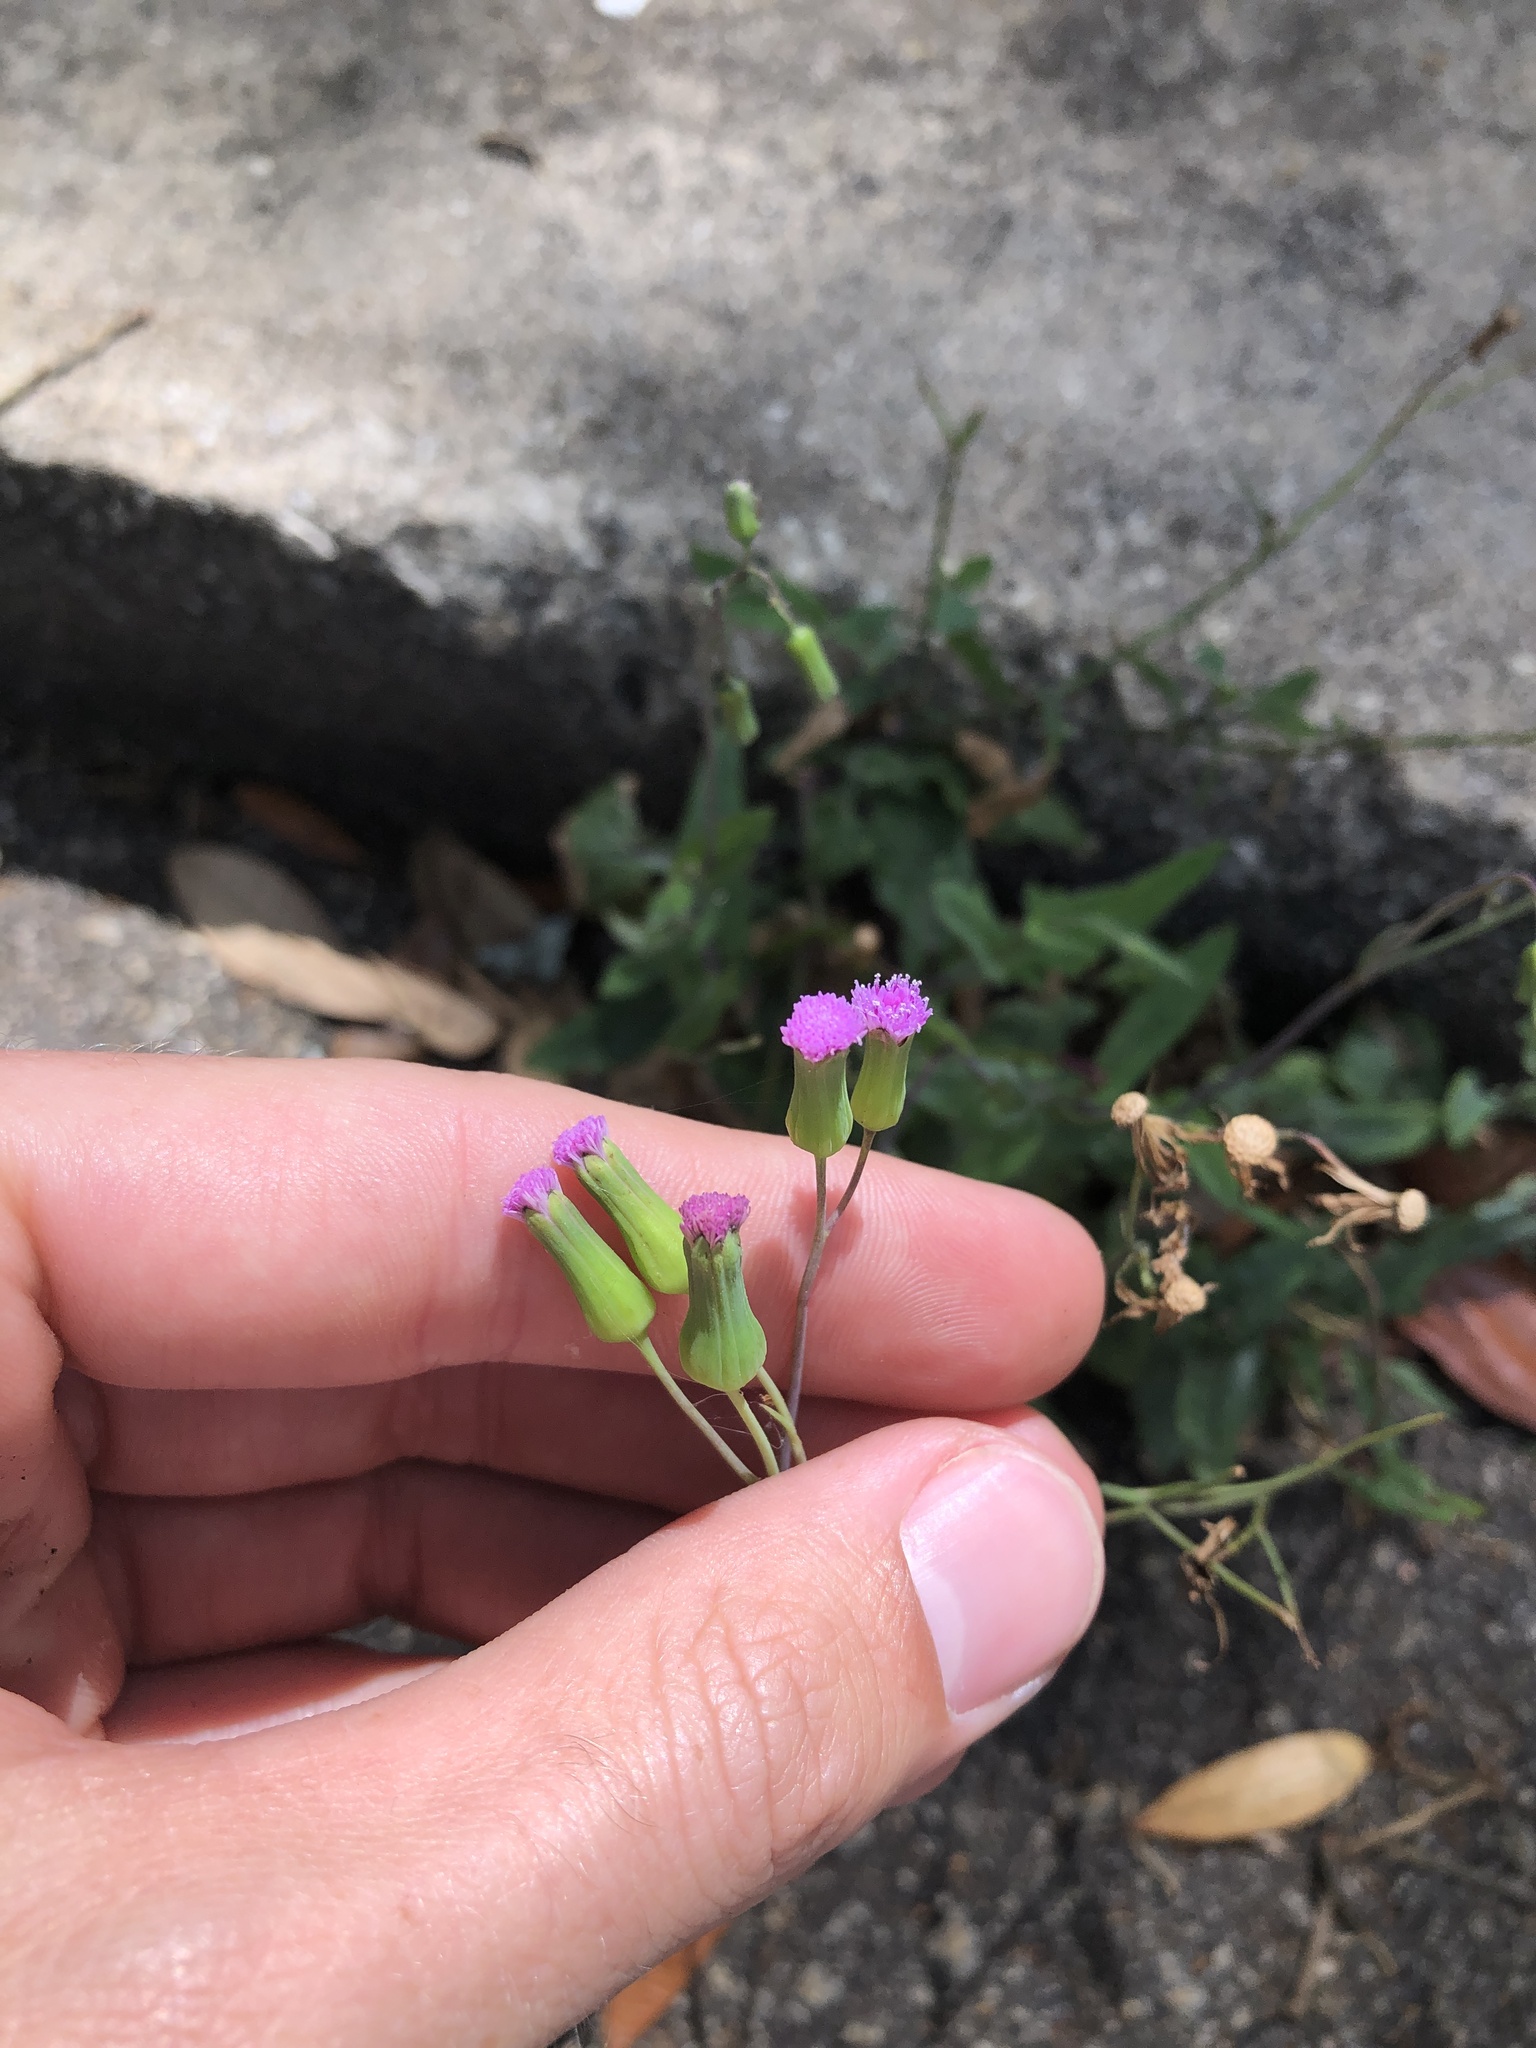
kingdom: Plantae
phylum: Tracheophyta
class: Magnoliopsida
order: Asterales
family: Asteraceae
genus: Emilia
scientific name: Emilia sonchifolia
